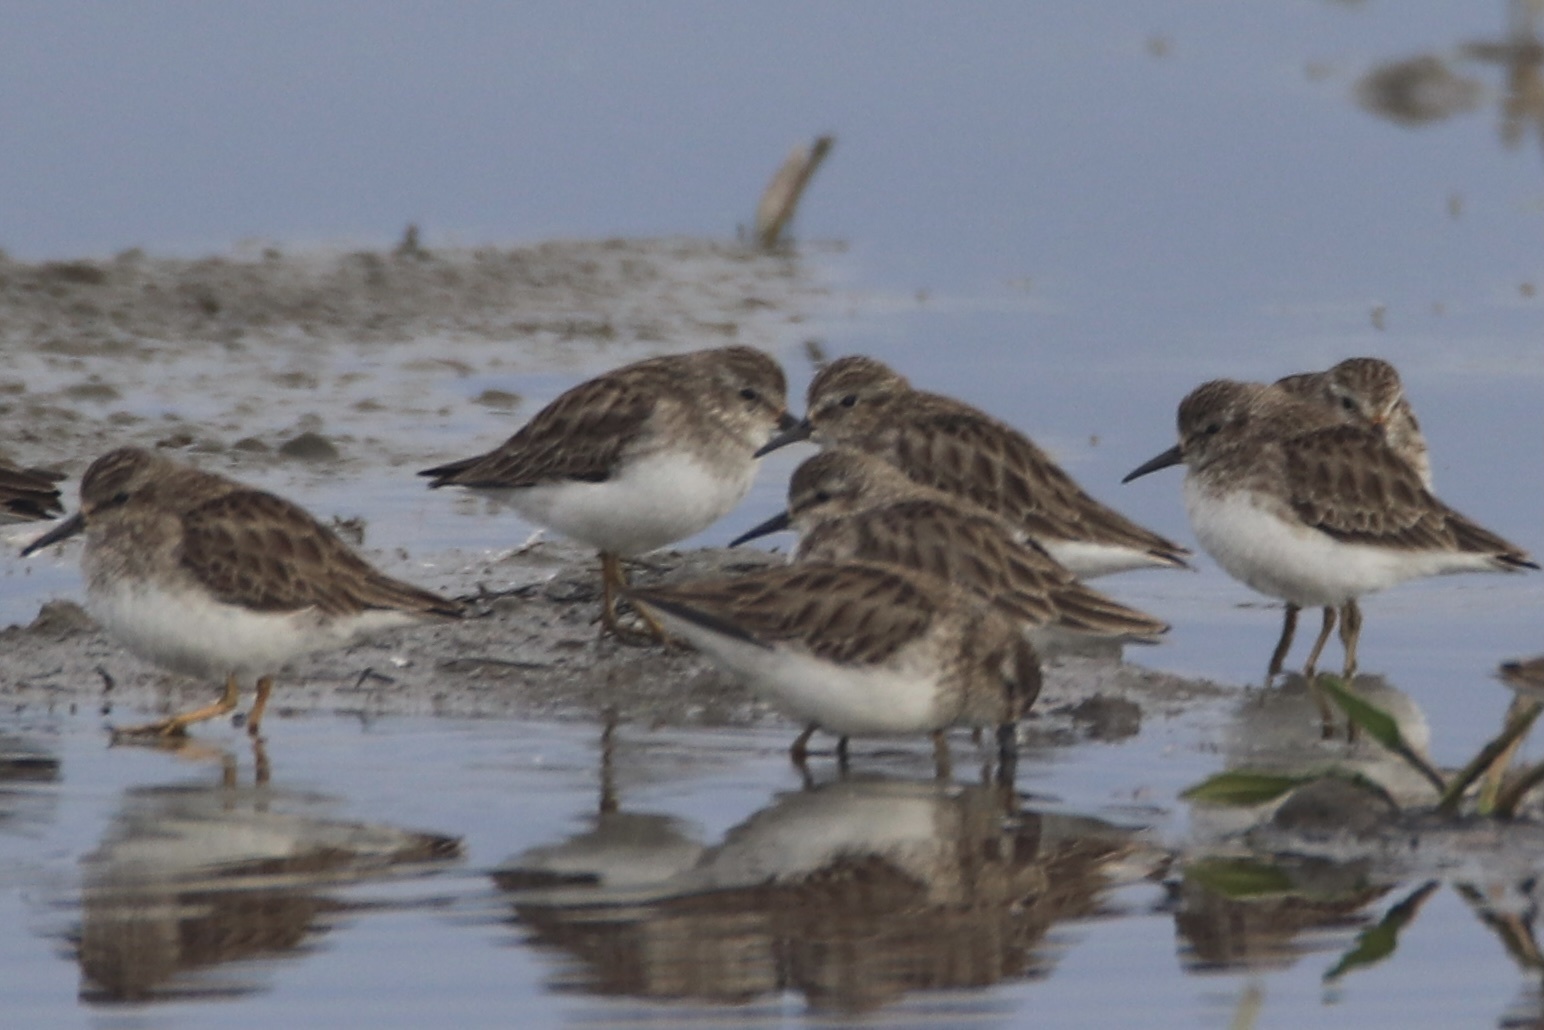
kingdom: Animalia
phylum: Chordata
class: Aves
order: Charadriiformes
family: Scolopacidae
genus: Calidris
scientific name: Calidris minutilla
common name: Least sandpiper
